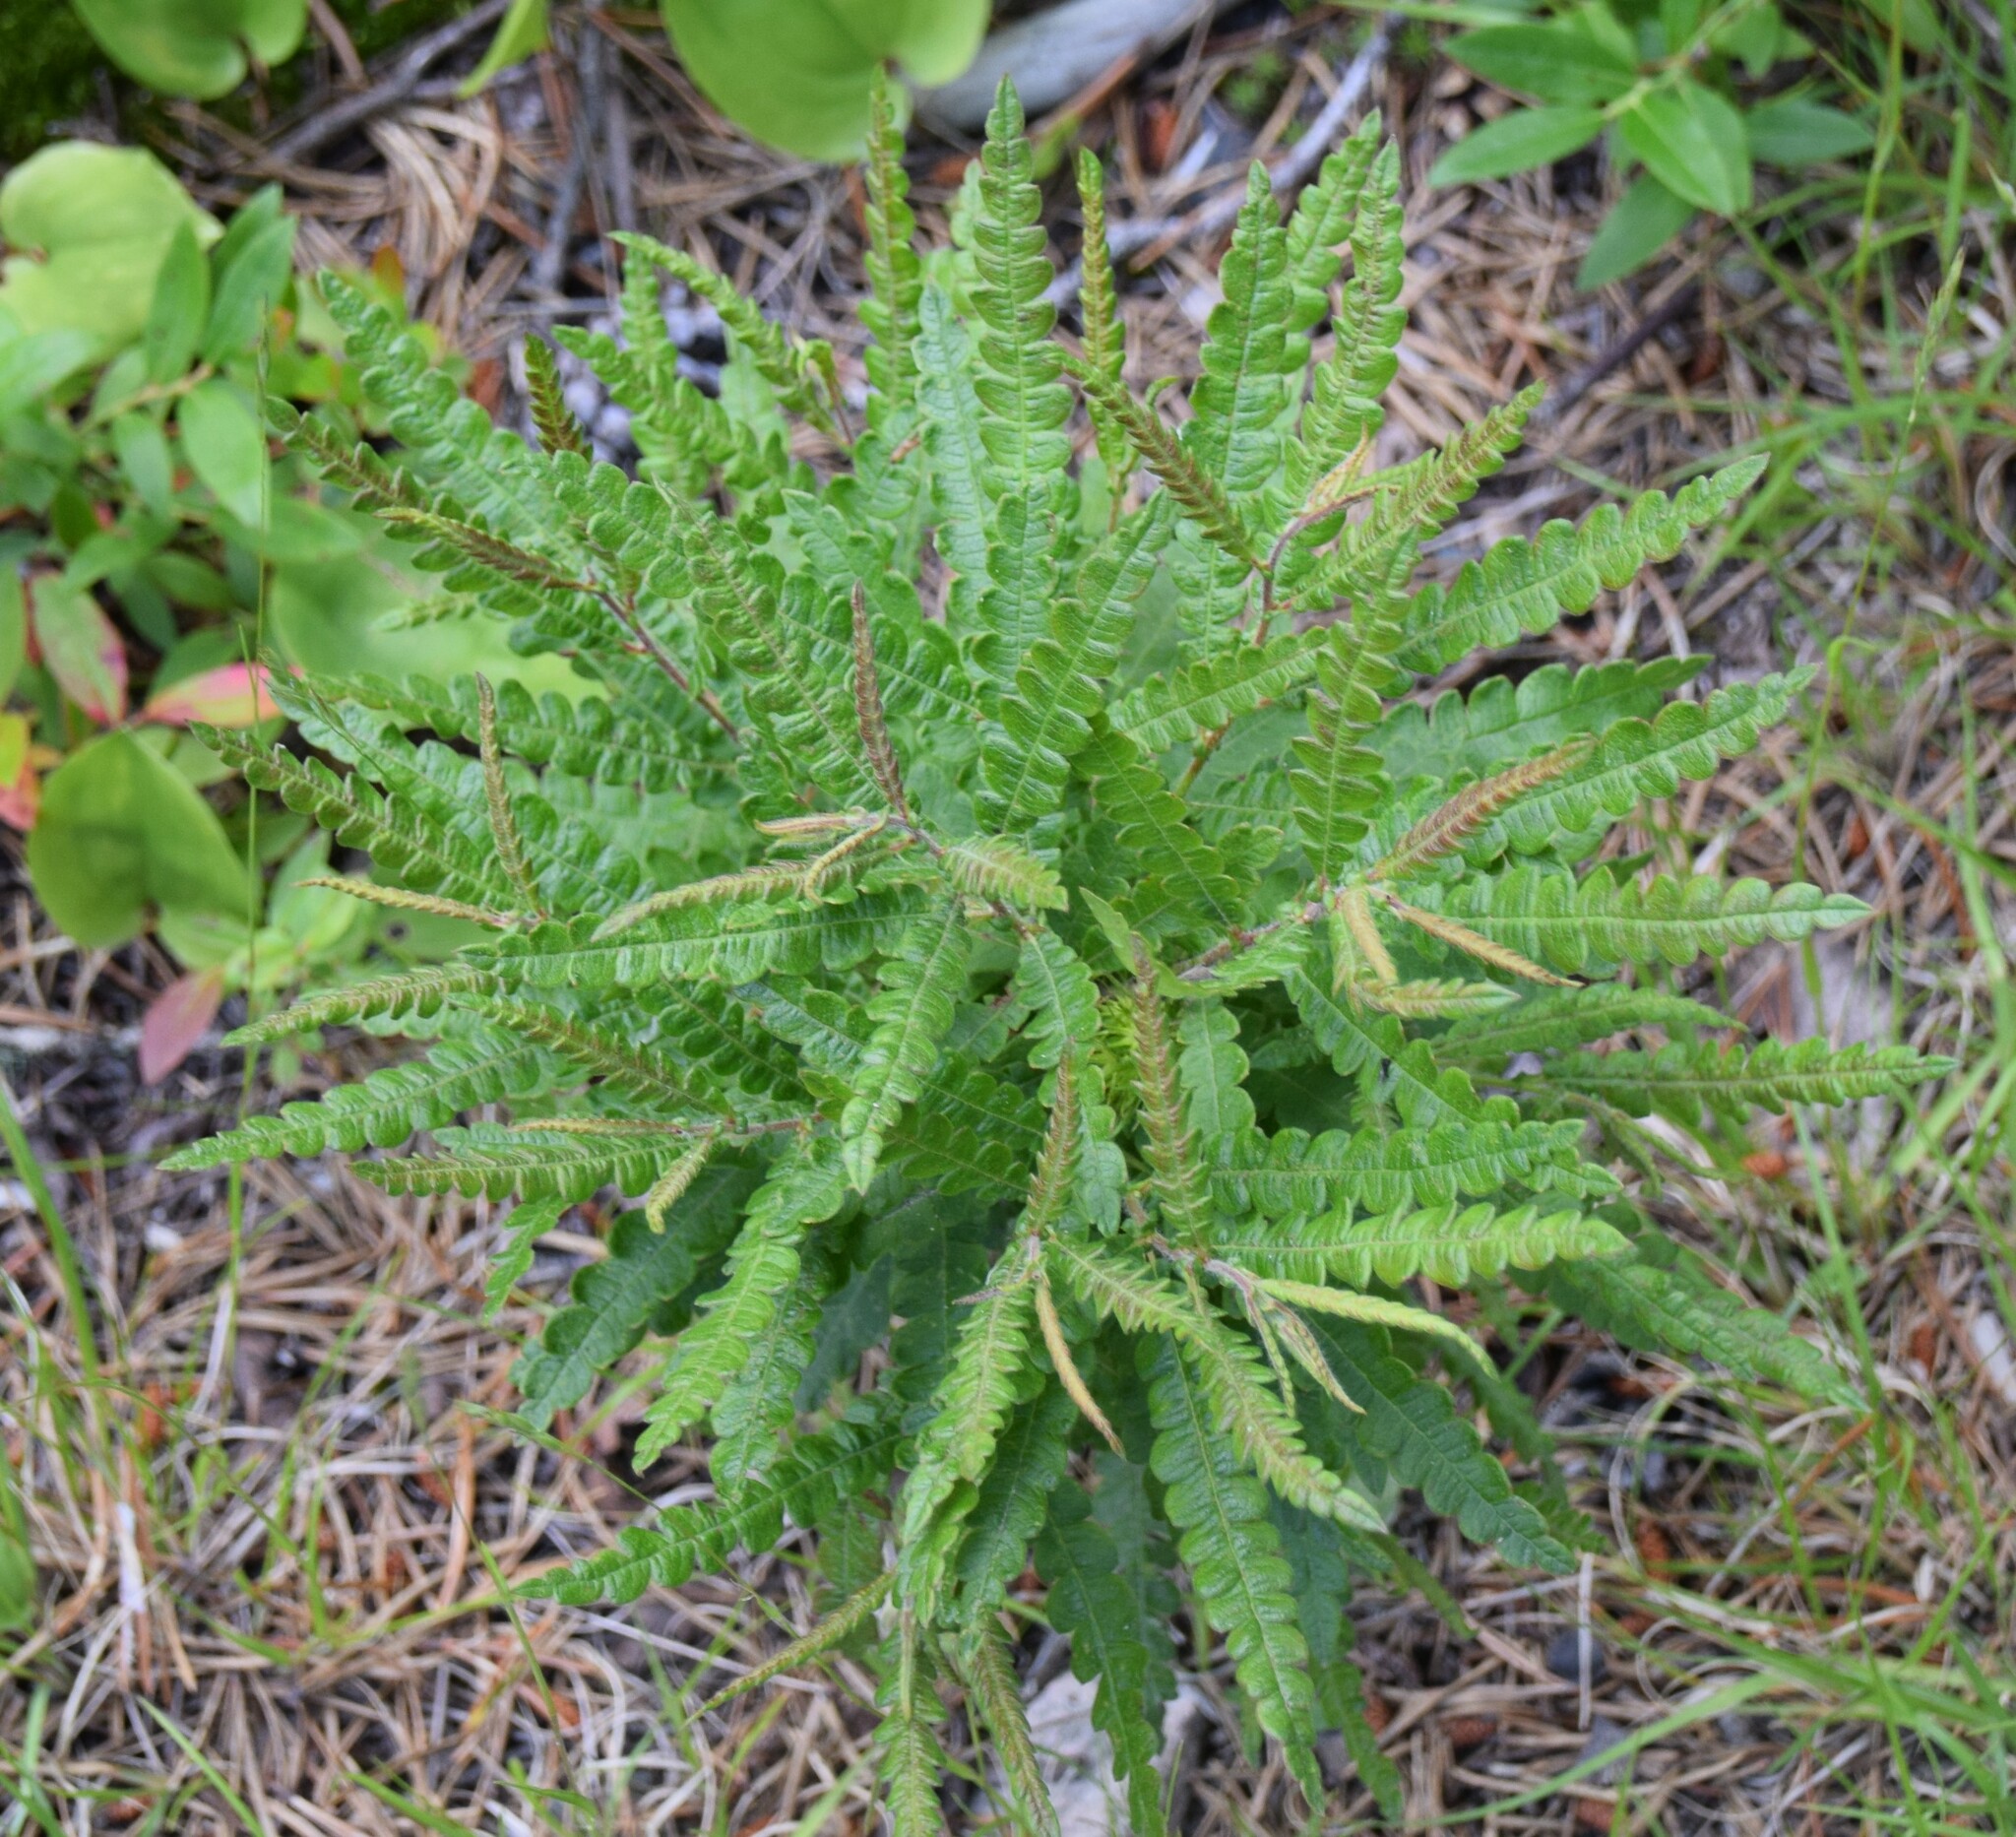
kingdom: Plantae
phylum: Tracheophyta
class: Magnoliopsida
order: Fagales
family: Myricaceae
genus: Comptonia
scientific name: Comptonia peregrina
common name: Sweet-fern
